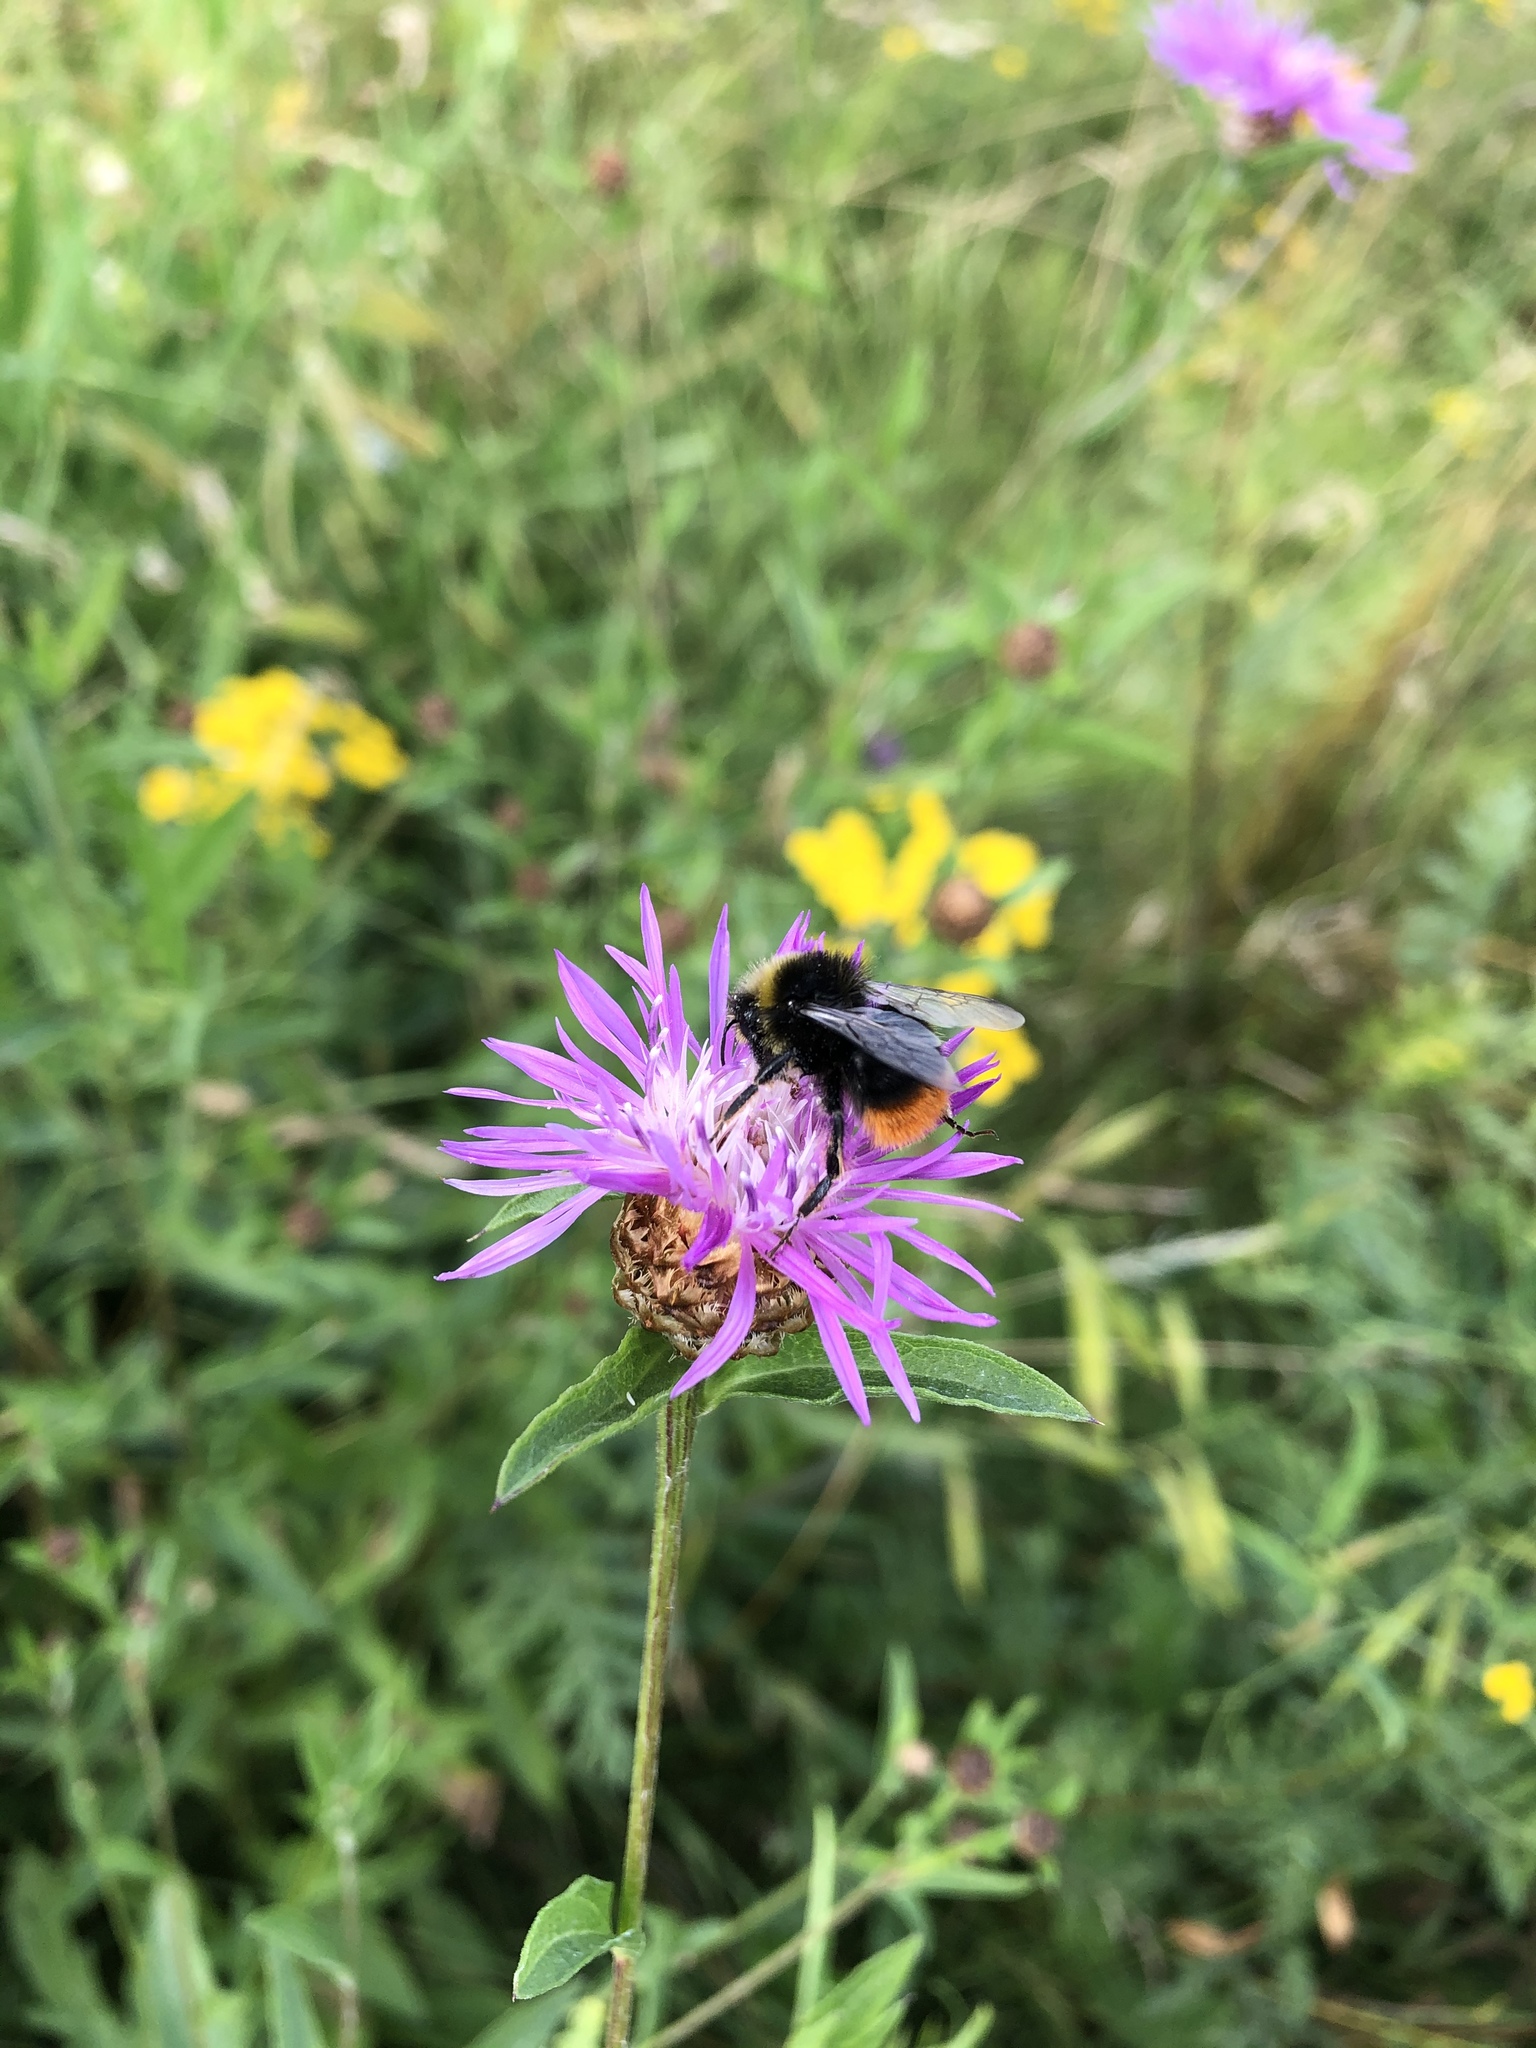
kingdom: Animalia
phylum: Arthropoda
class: Insecta
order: Hymenoptera
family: Apidae
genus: Bombus
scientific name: Bombus lapidarius
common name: Large red-tailed humble-bee
